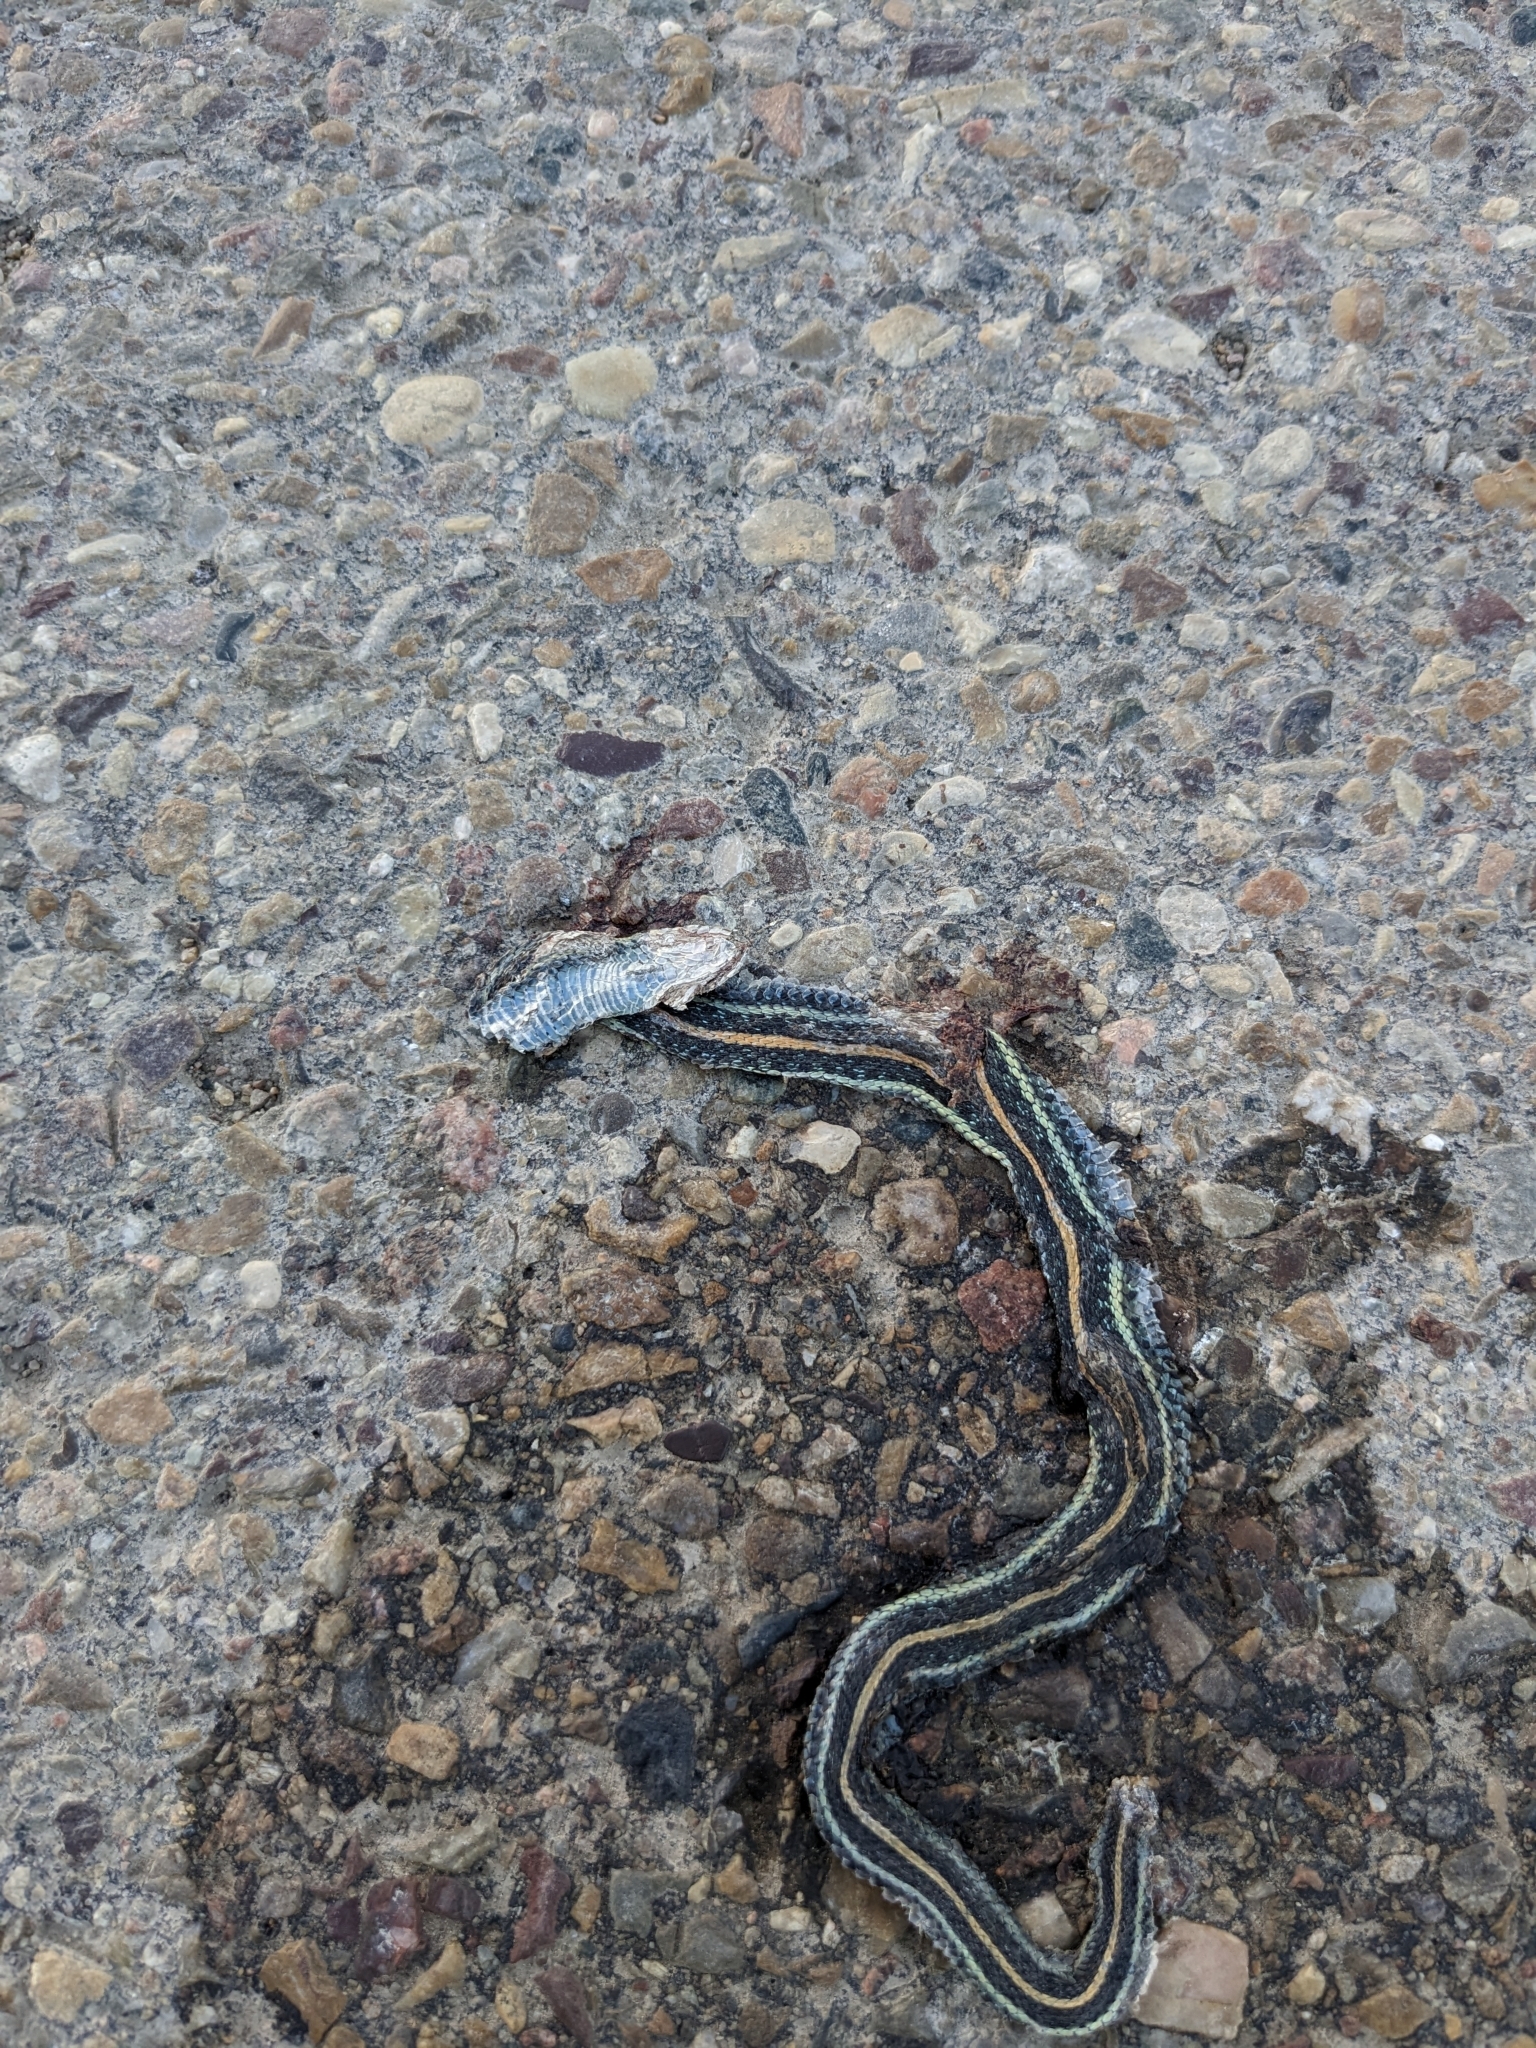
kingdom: Animalia
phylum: Chordata
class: Squamata
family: Colubridae
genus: Thamnophis
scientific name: Thamnophis radix
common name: Plains garter snake
